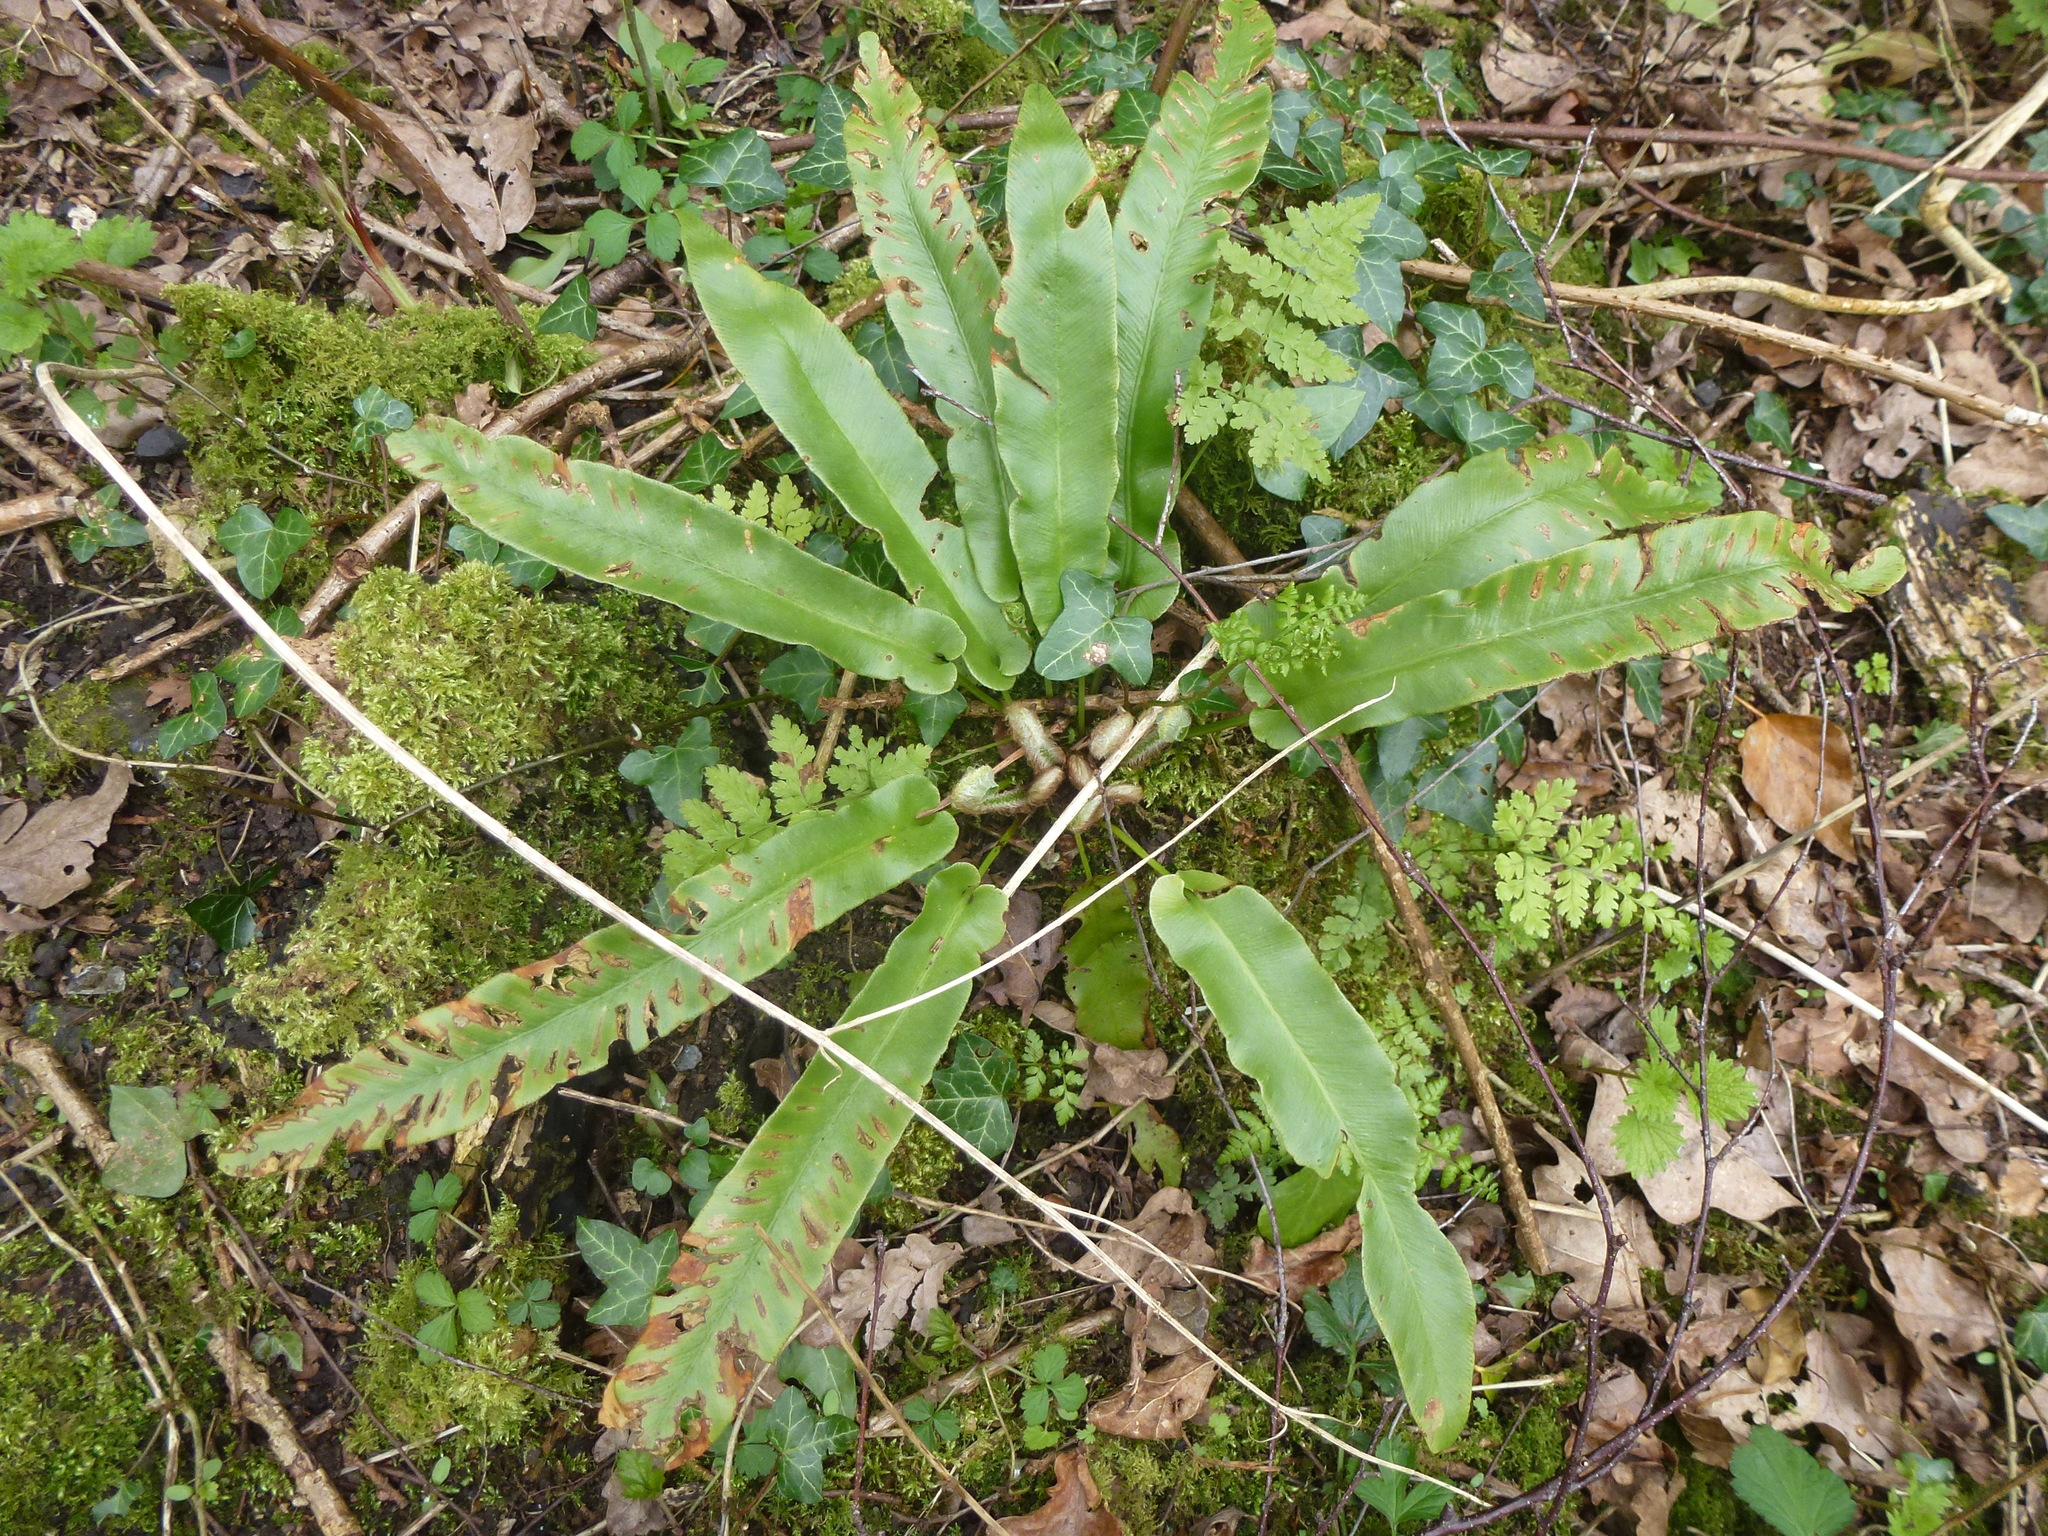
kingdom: Plantae
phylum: Tracheophyta
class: Polypodiopsida
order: Polypodiales
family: Aspleniaceae
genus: Asplenium
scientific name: Asplenium scolopendrium
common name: Hart's-tongue fern
